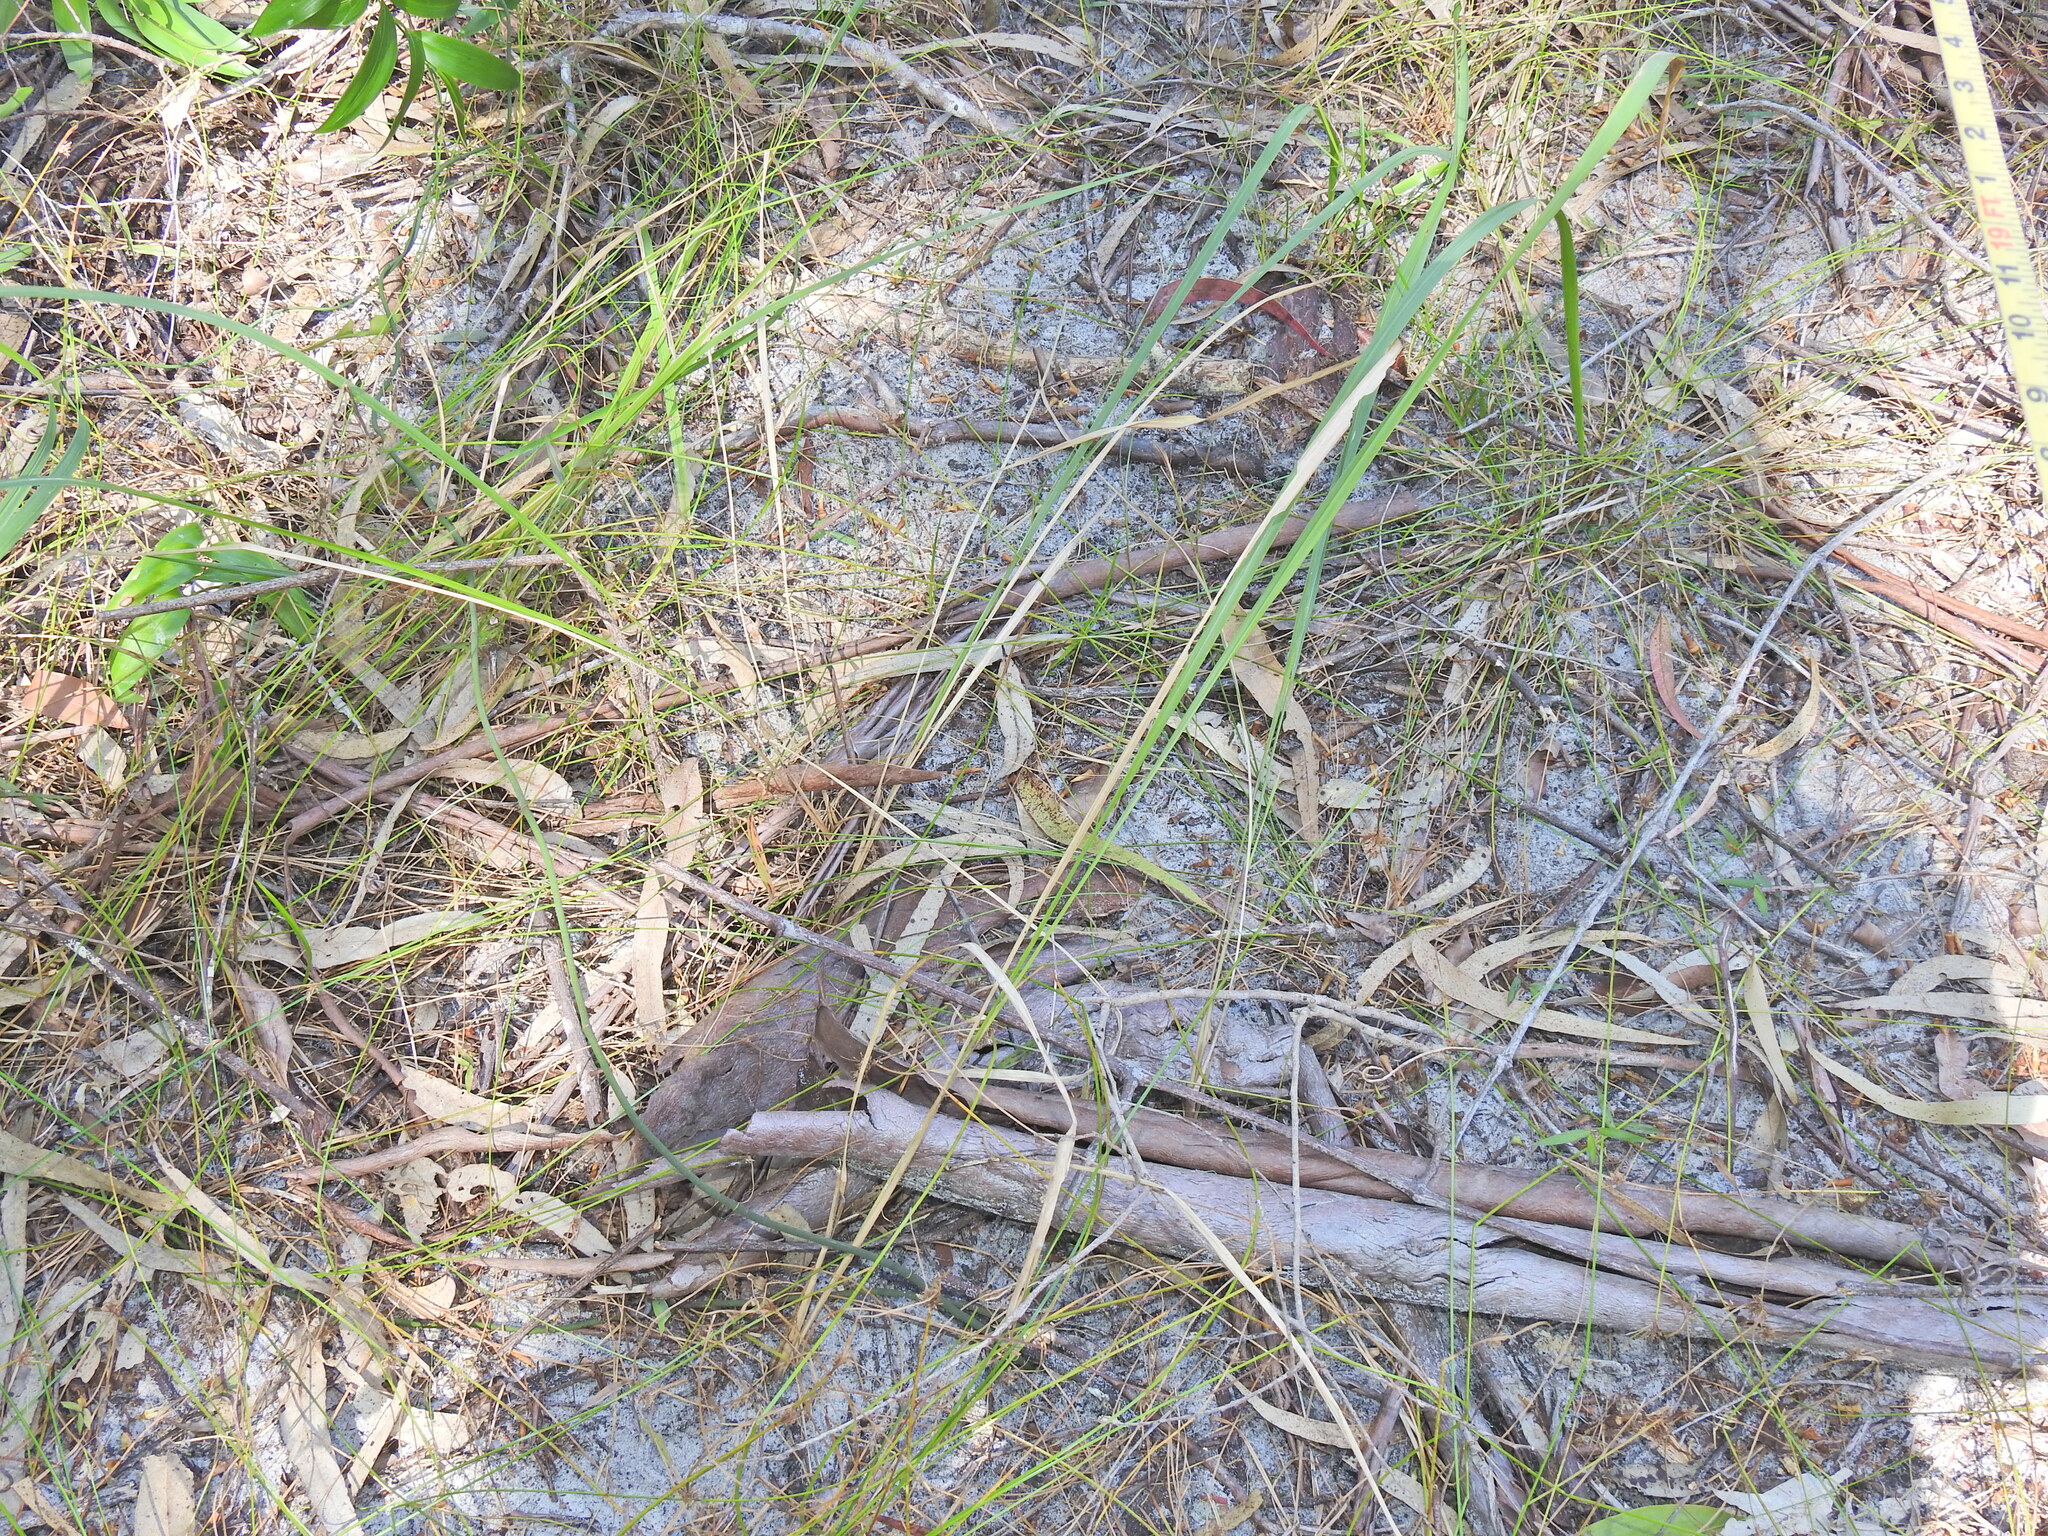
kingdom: Plantae
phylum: Tracheophyta
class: Liliopsida
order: Poales
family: Poaceae
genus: Imperata
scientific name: Imperata cylindrica
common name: Cogongrass
